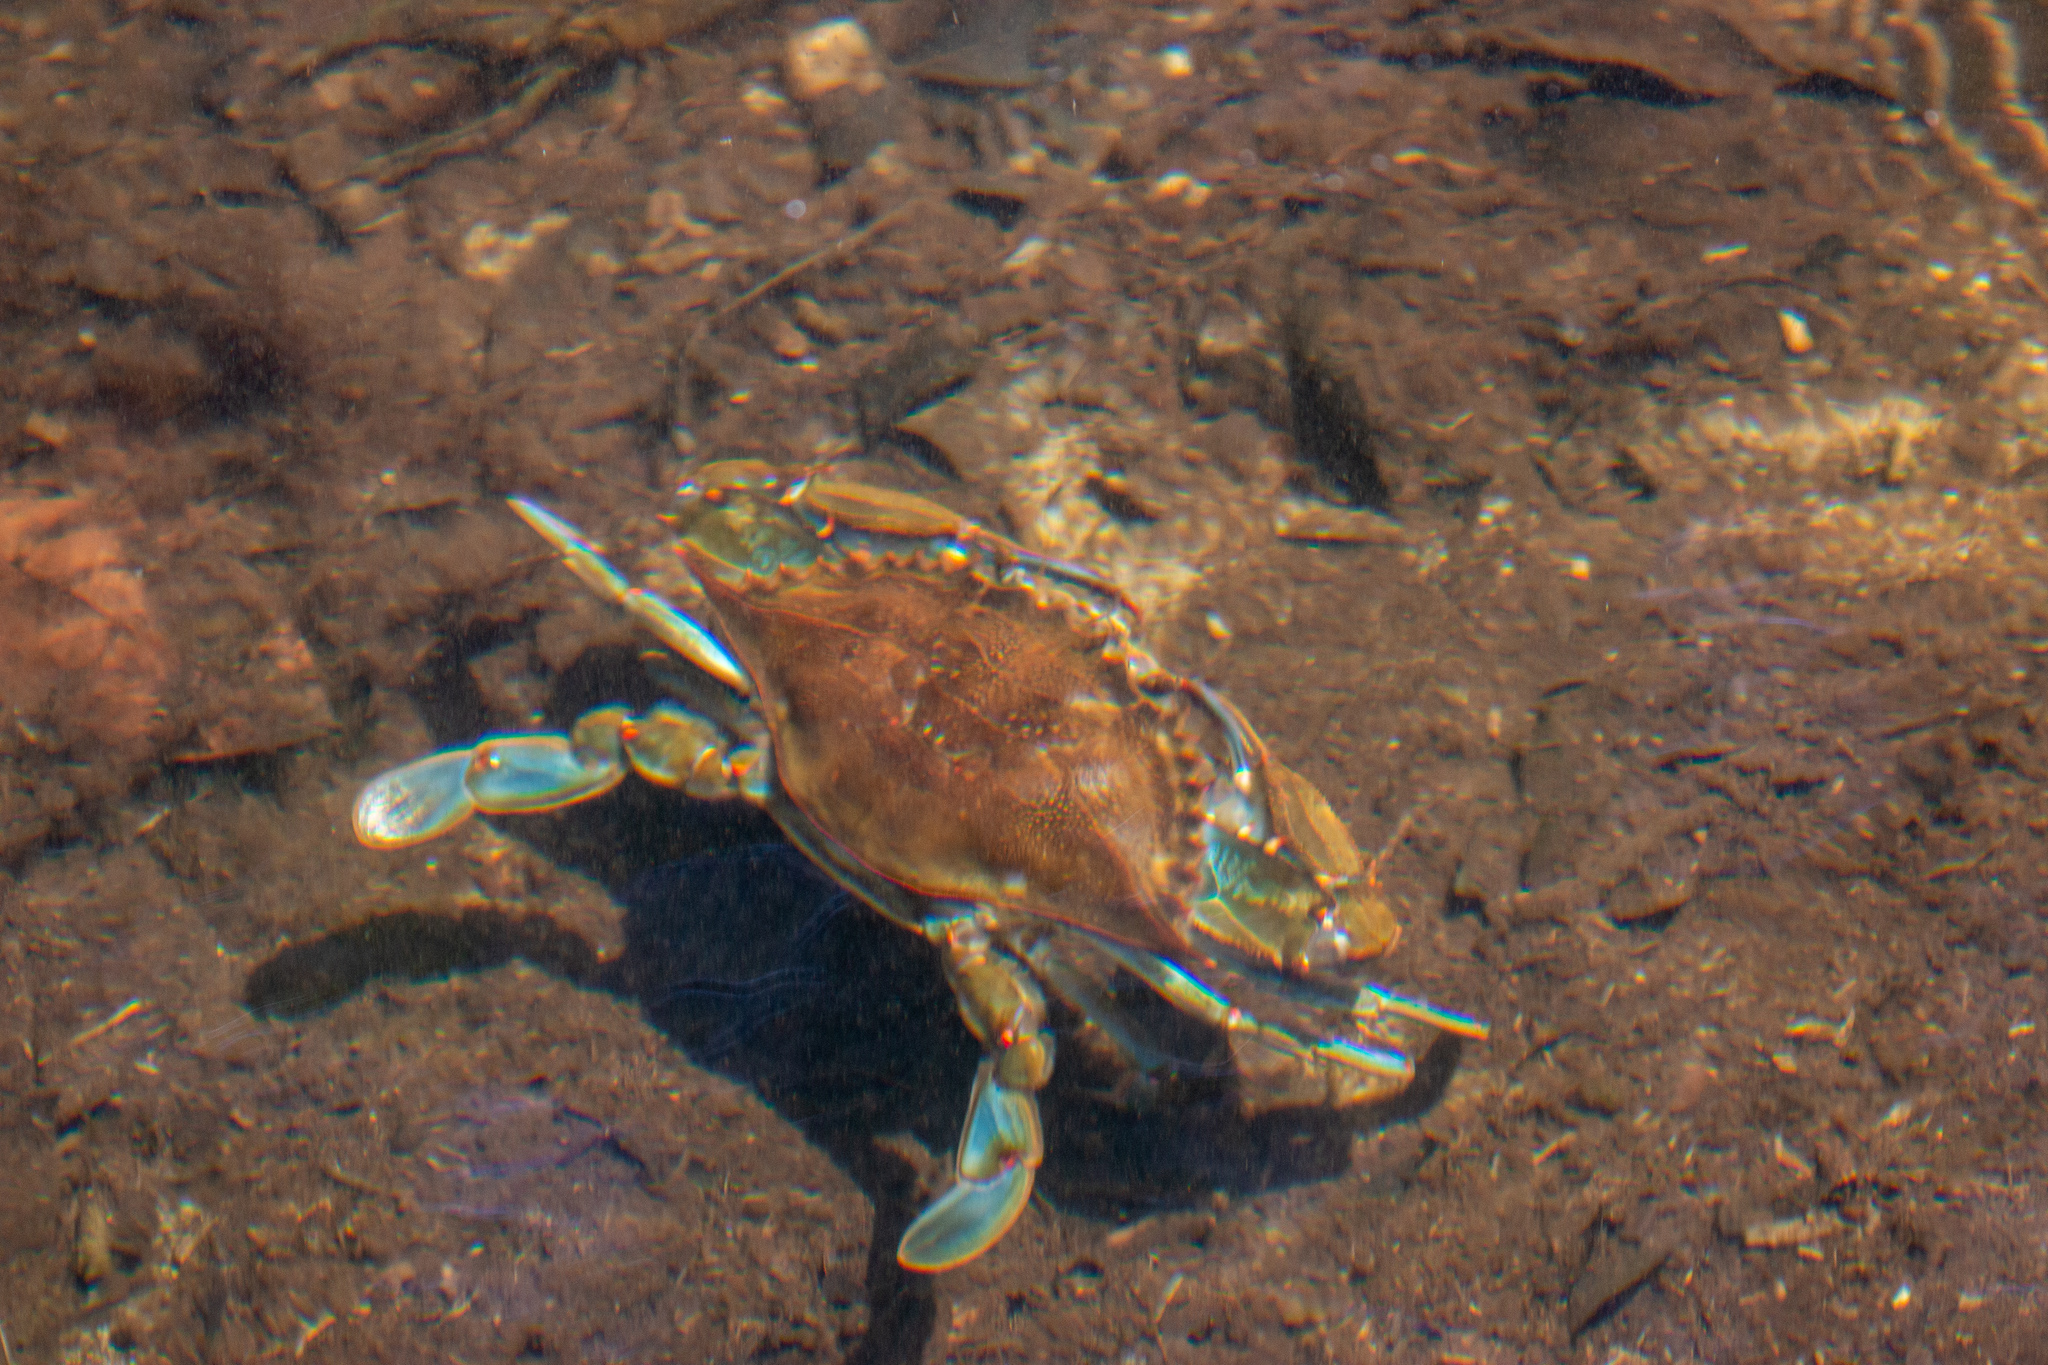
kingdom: Animalia
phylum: Arthropoda
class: Malacostraca
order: Decapoda
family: Portunidae
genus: Callinectes
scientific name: Callinectes sapidus
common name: Blue crab
